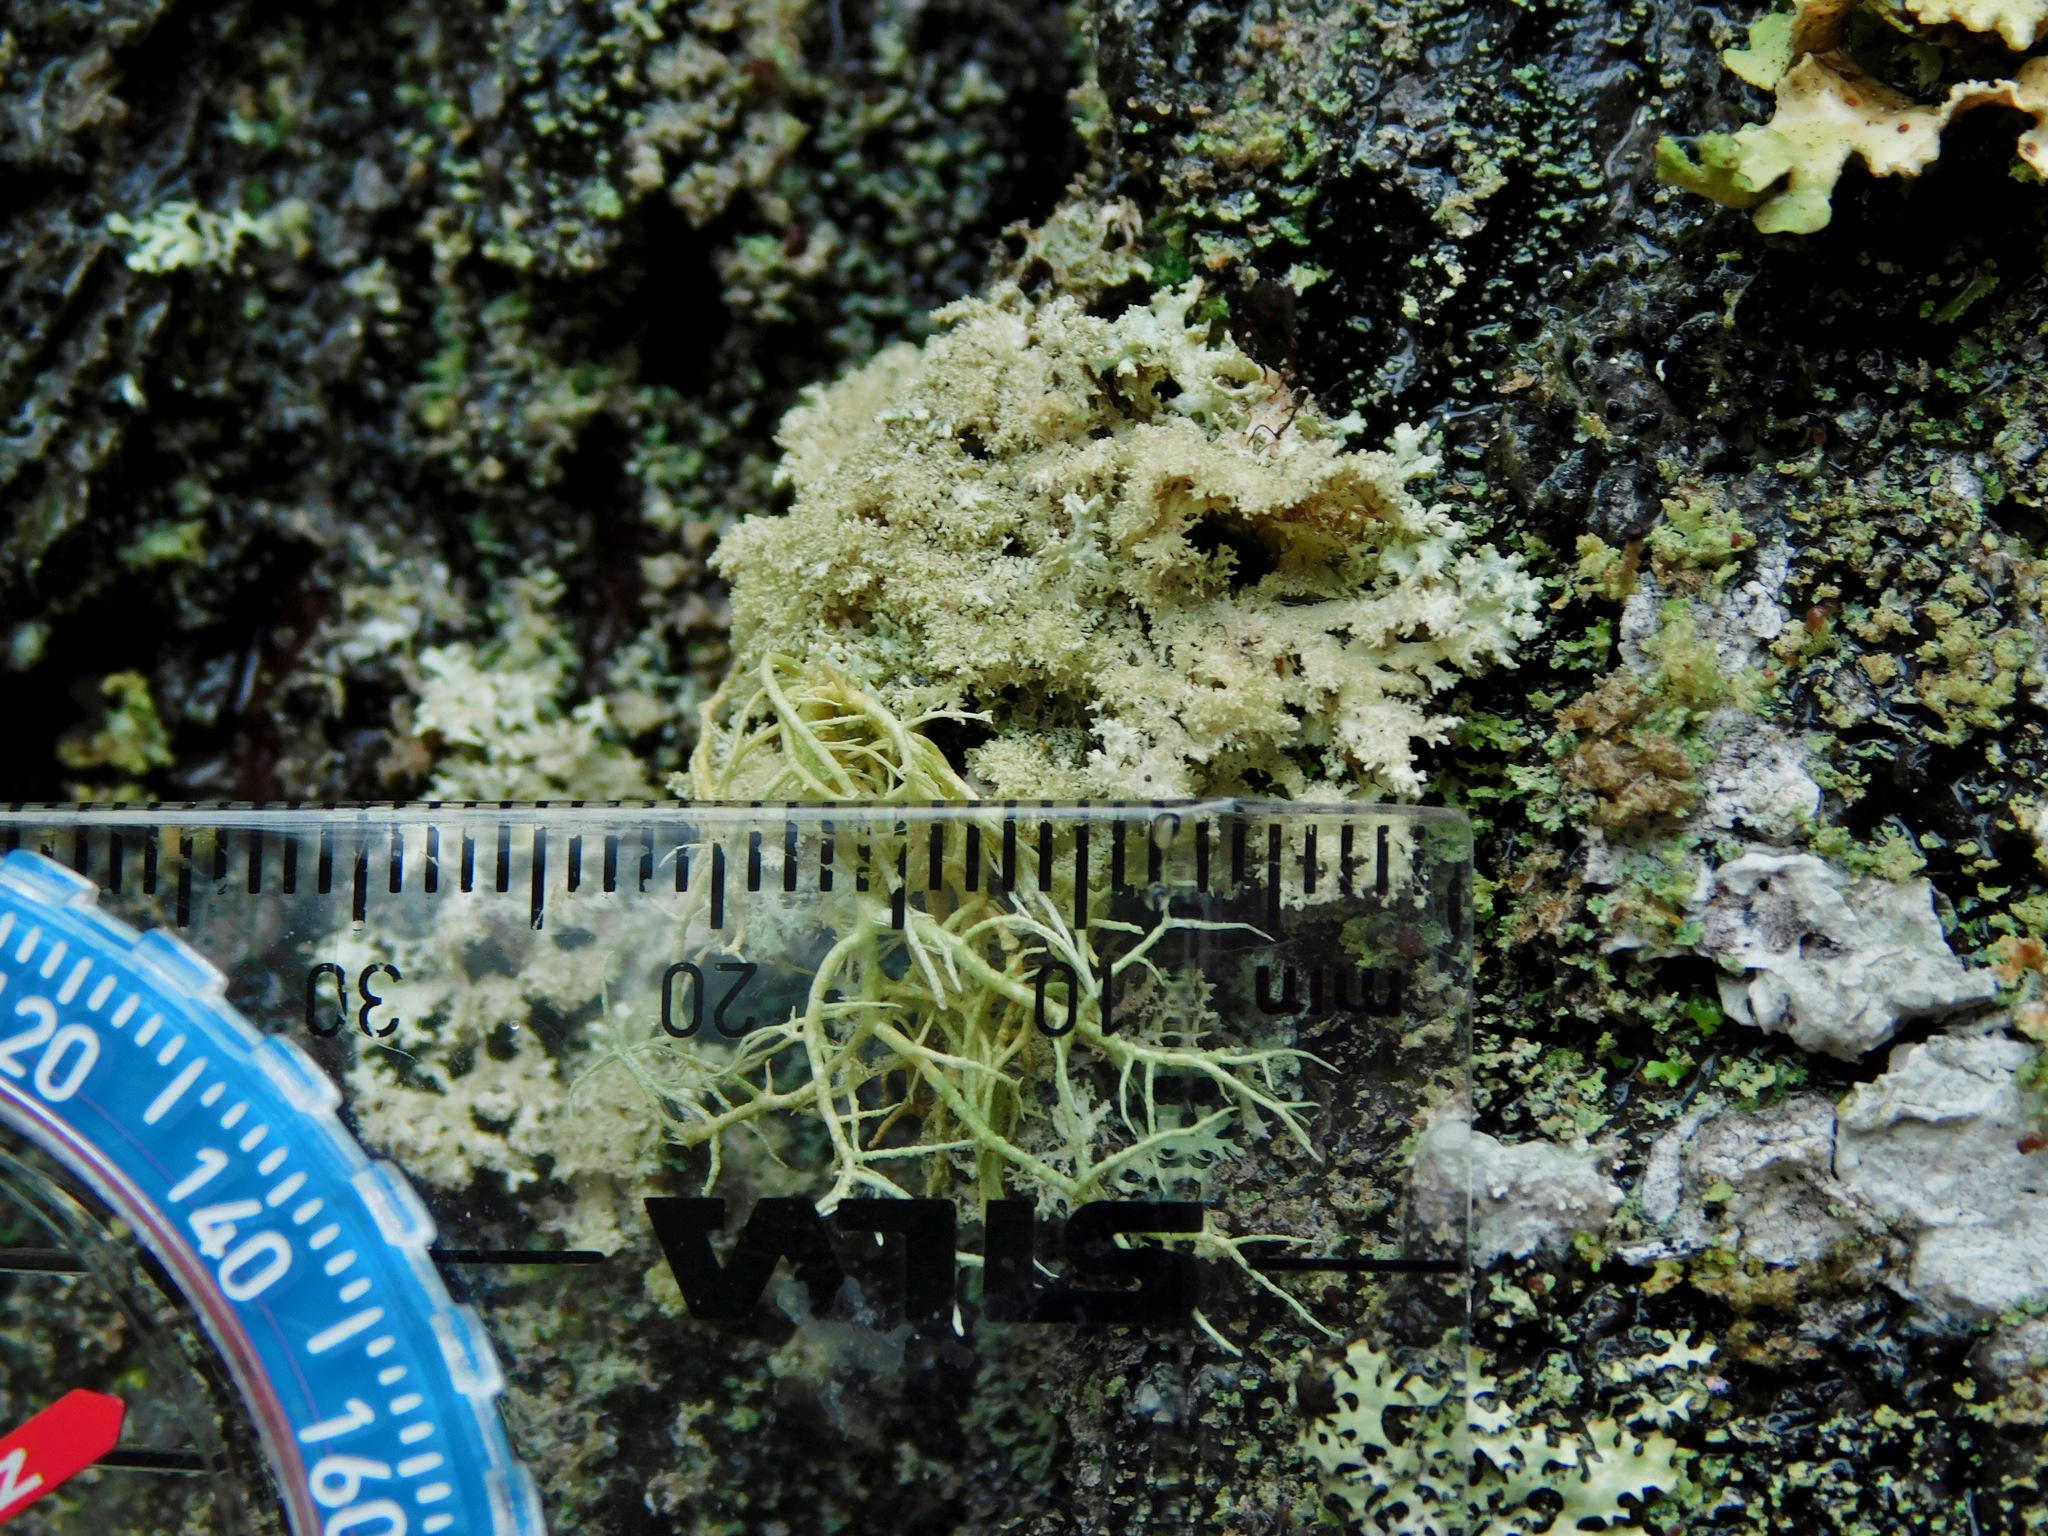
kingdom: Fungi
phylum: Ascomycota
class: Lecanoromycetes
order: Lecanorales
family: Parmeliaceae
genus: Imshaugia
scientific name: Imshaugia aleurites
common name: Salted starburst lichen
